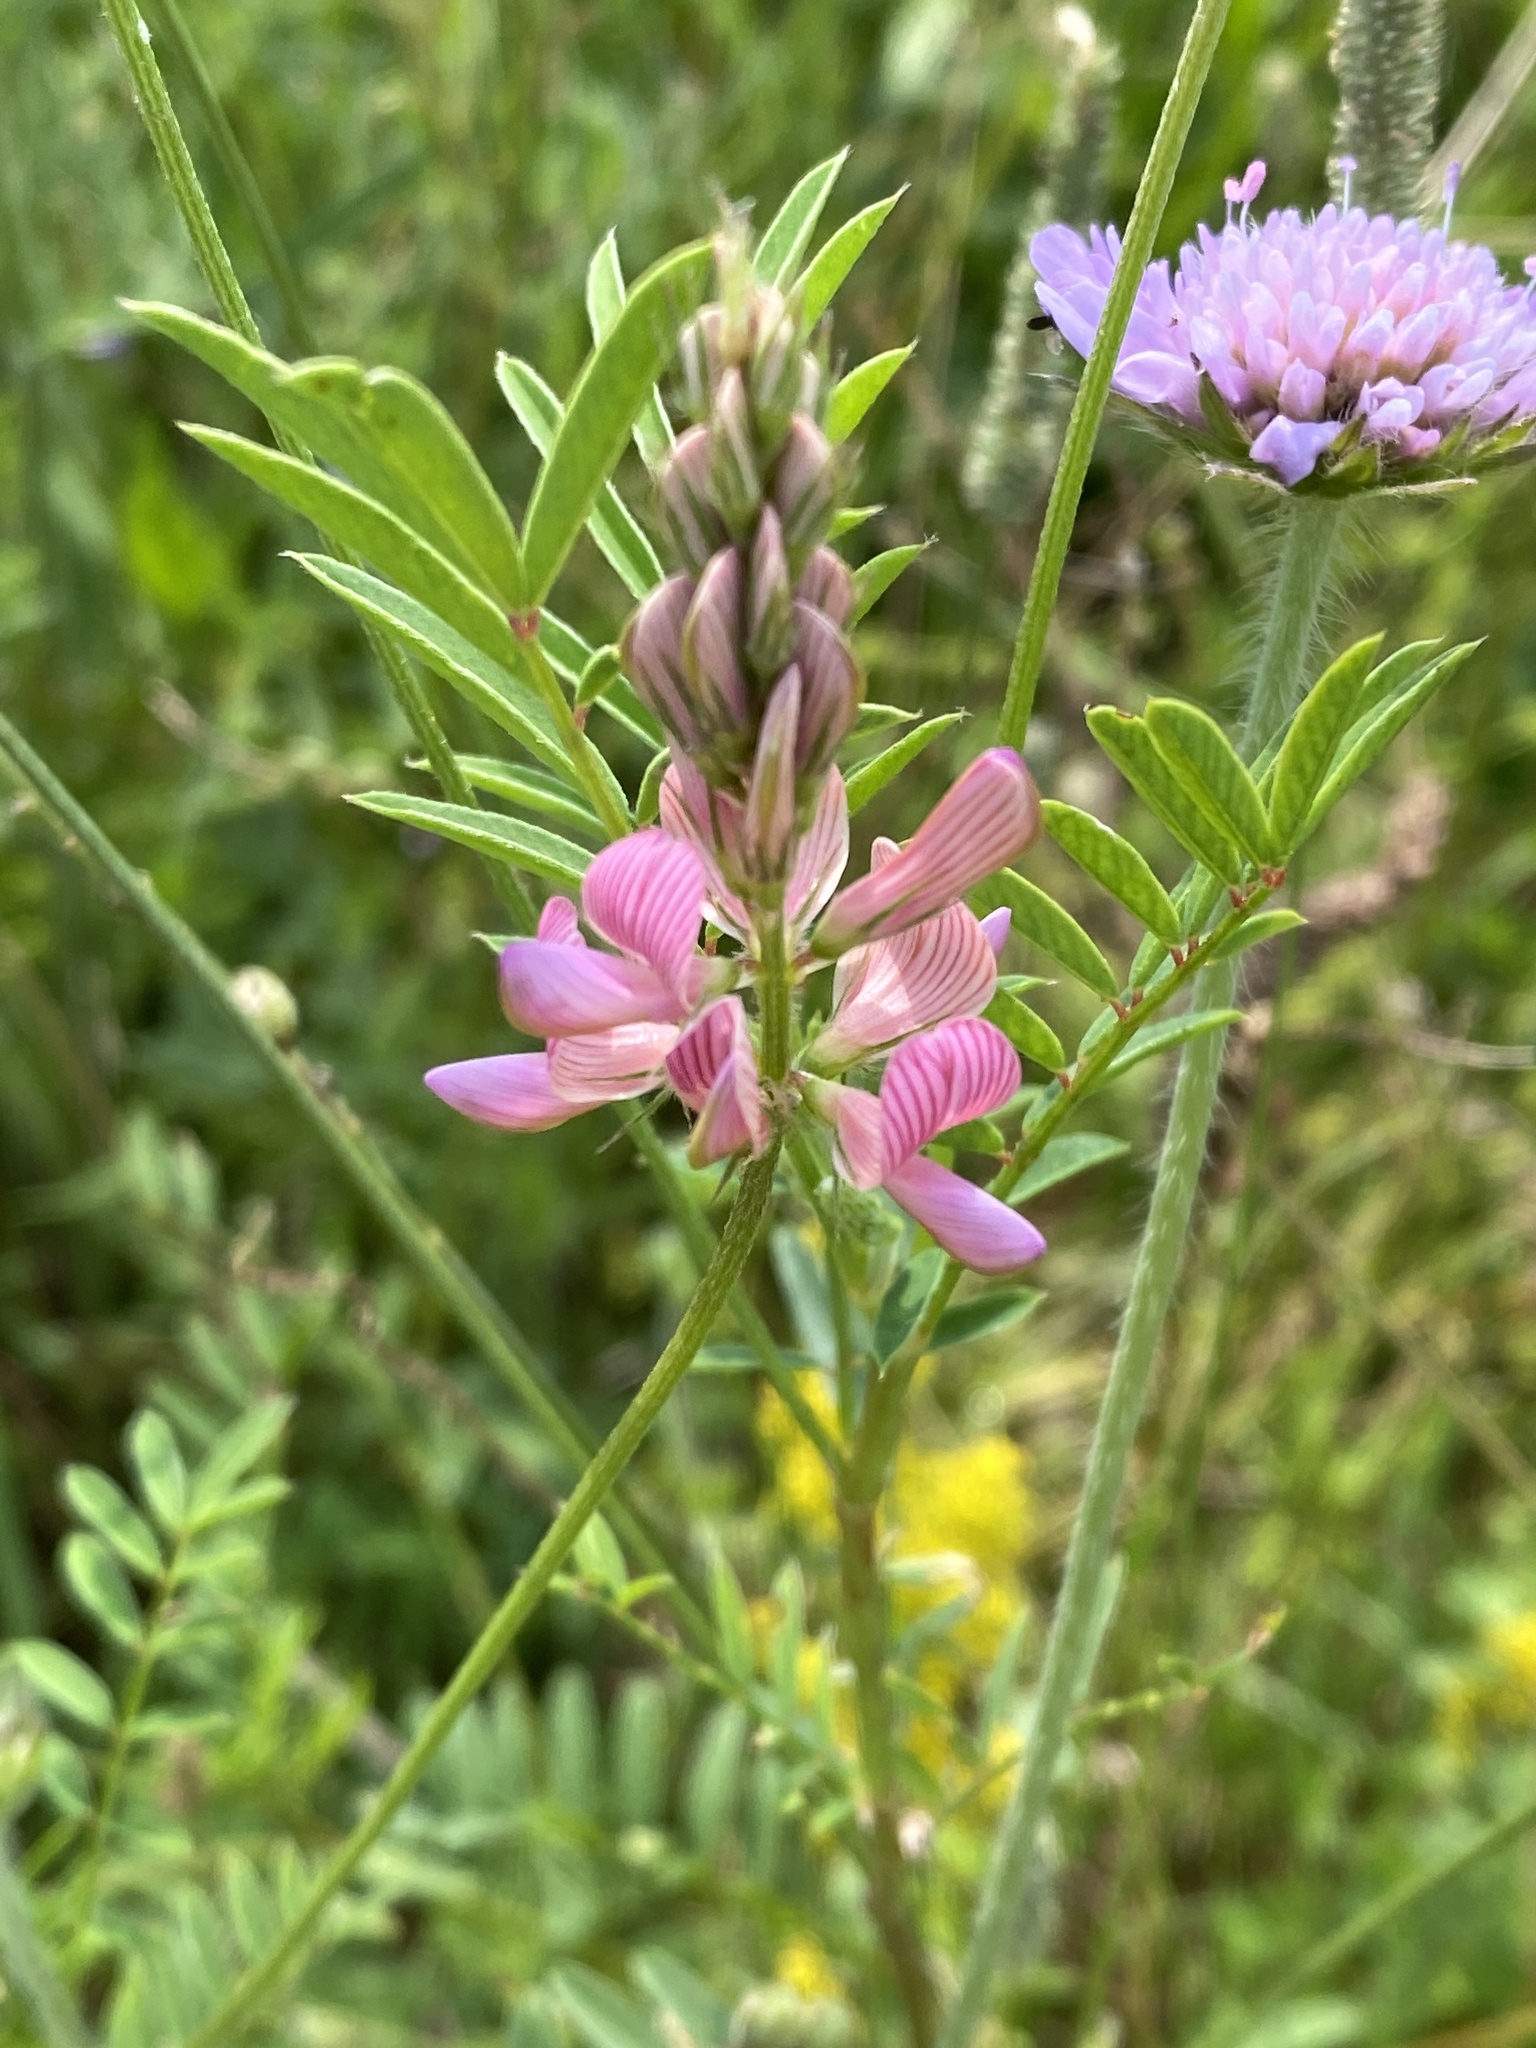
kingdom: Plantae
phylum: Tracheophyta
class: Magnoliopsida
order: Fabales
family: Fabaceae
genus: Onobrychis
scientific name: Onobrychis viciifolia
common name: Sainfoin
